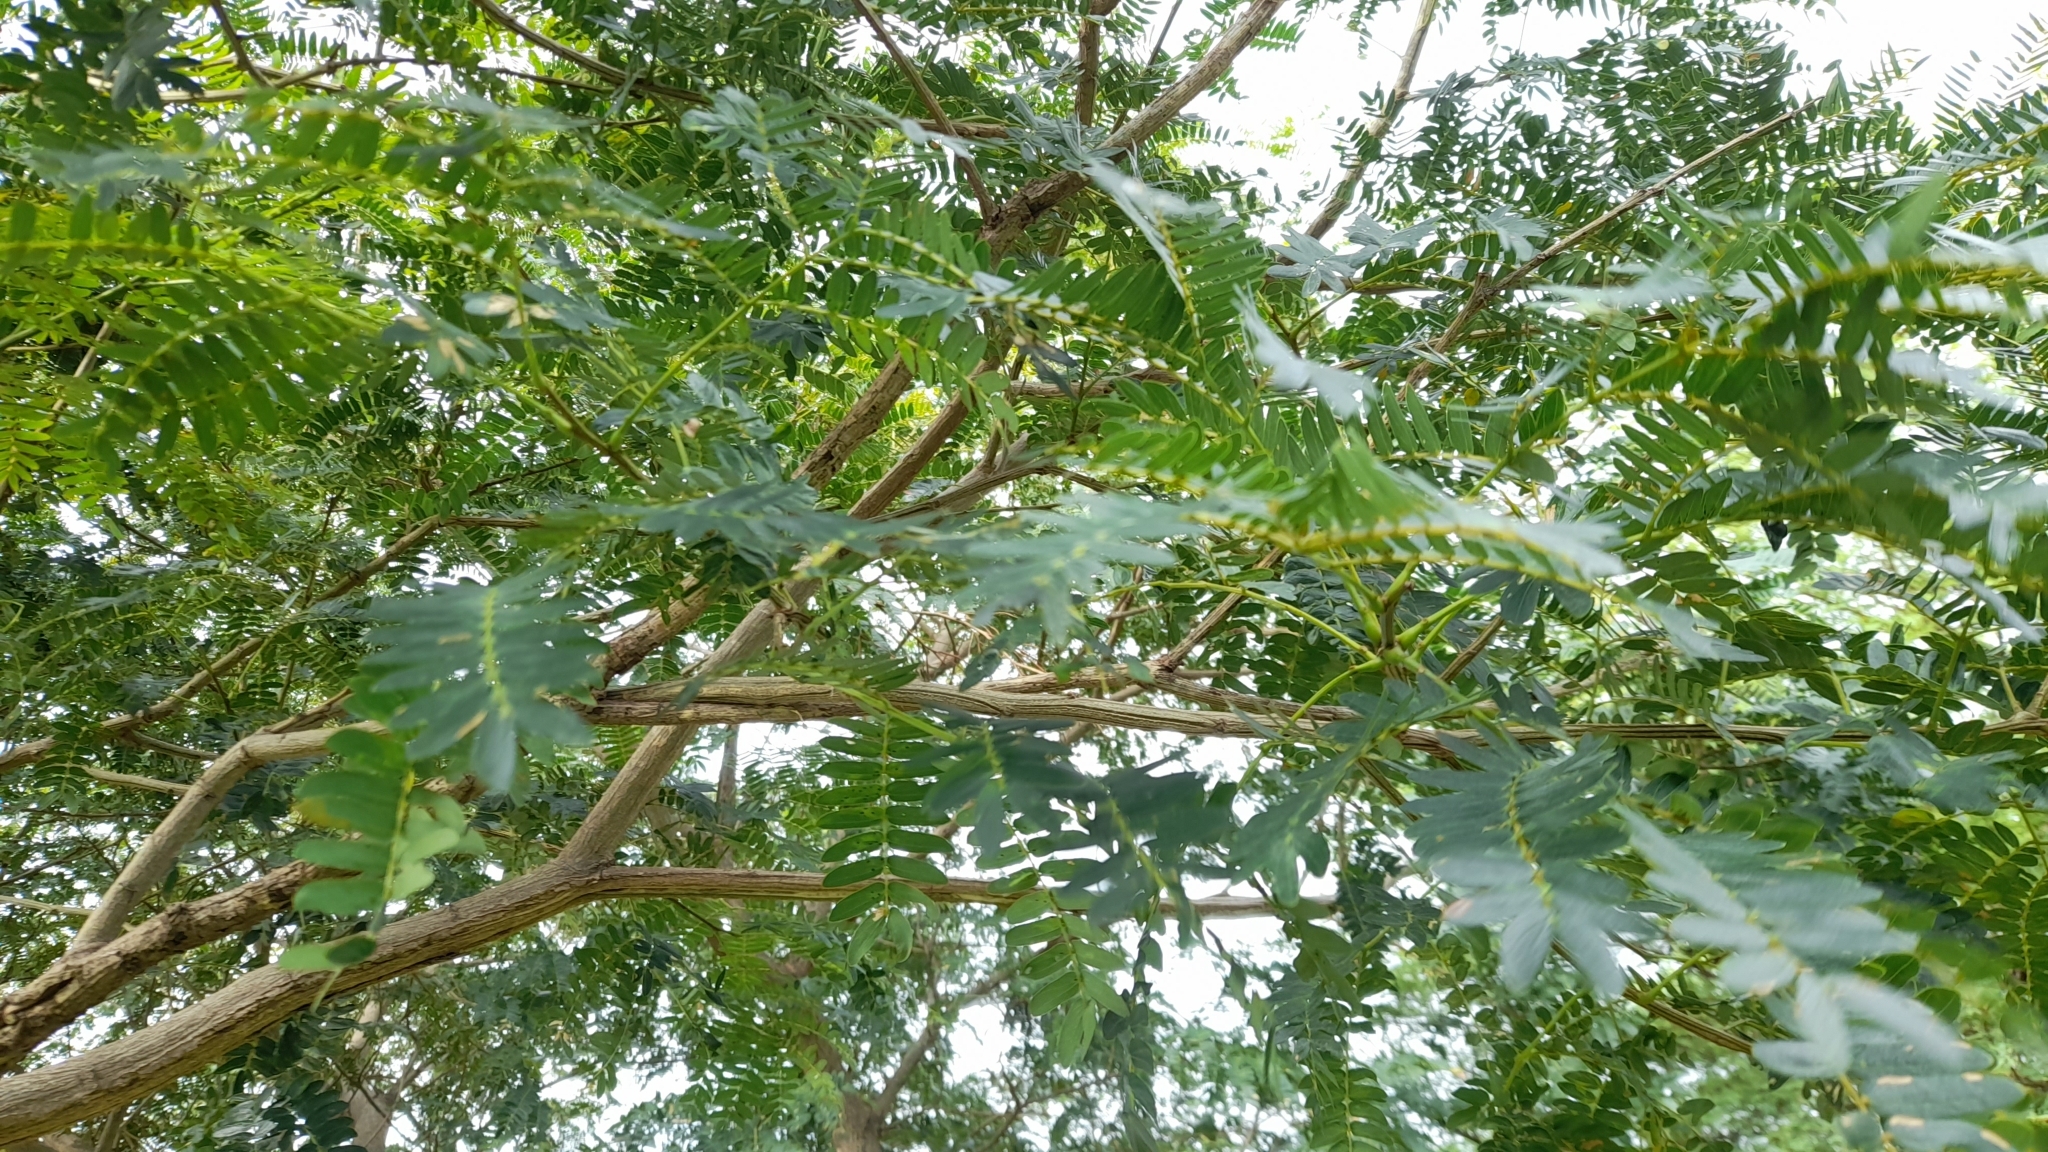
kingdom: Plantae
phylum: Tracheophyta
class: Magnoliopsida
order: Fabales
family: Fabaceae
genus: Albizia
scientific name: Albizia inundata
